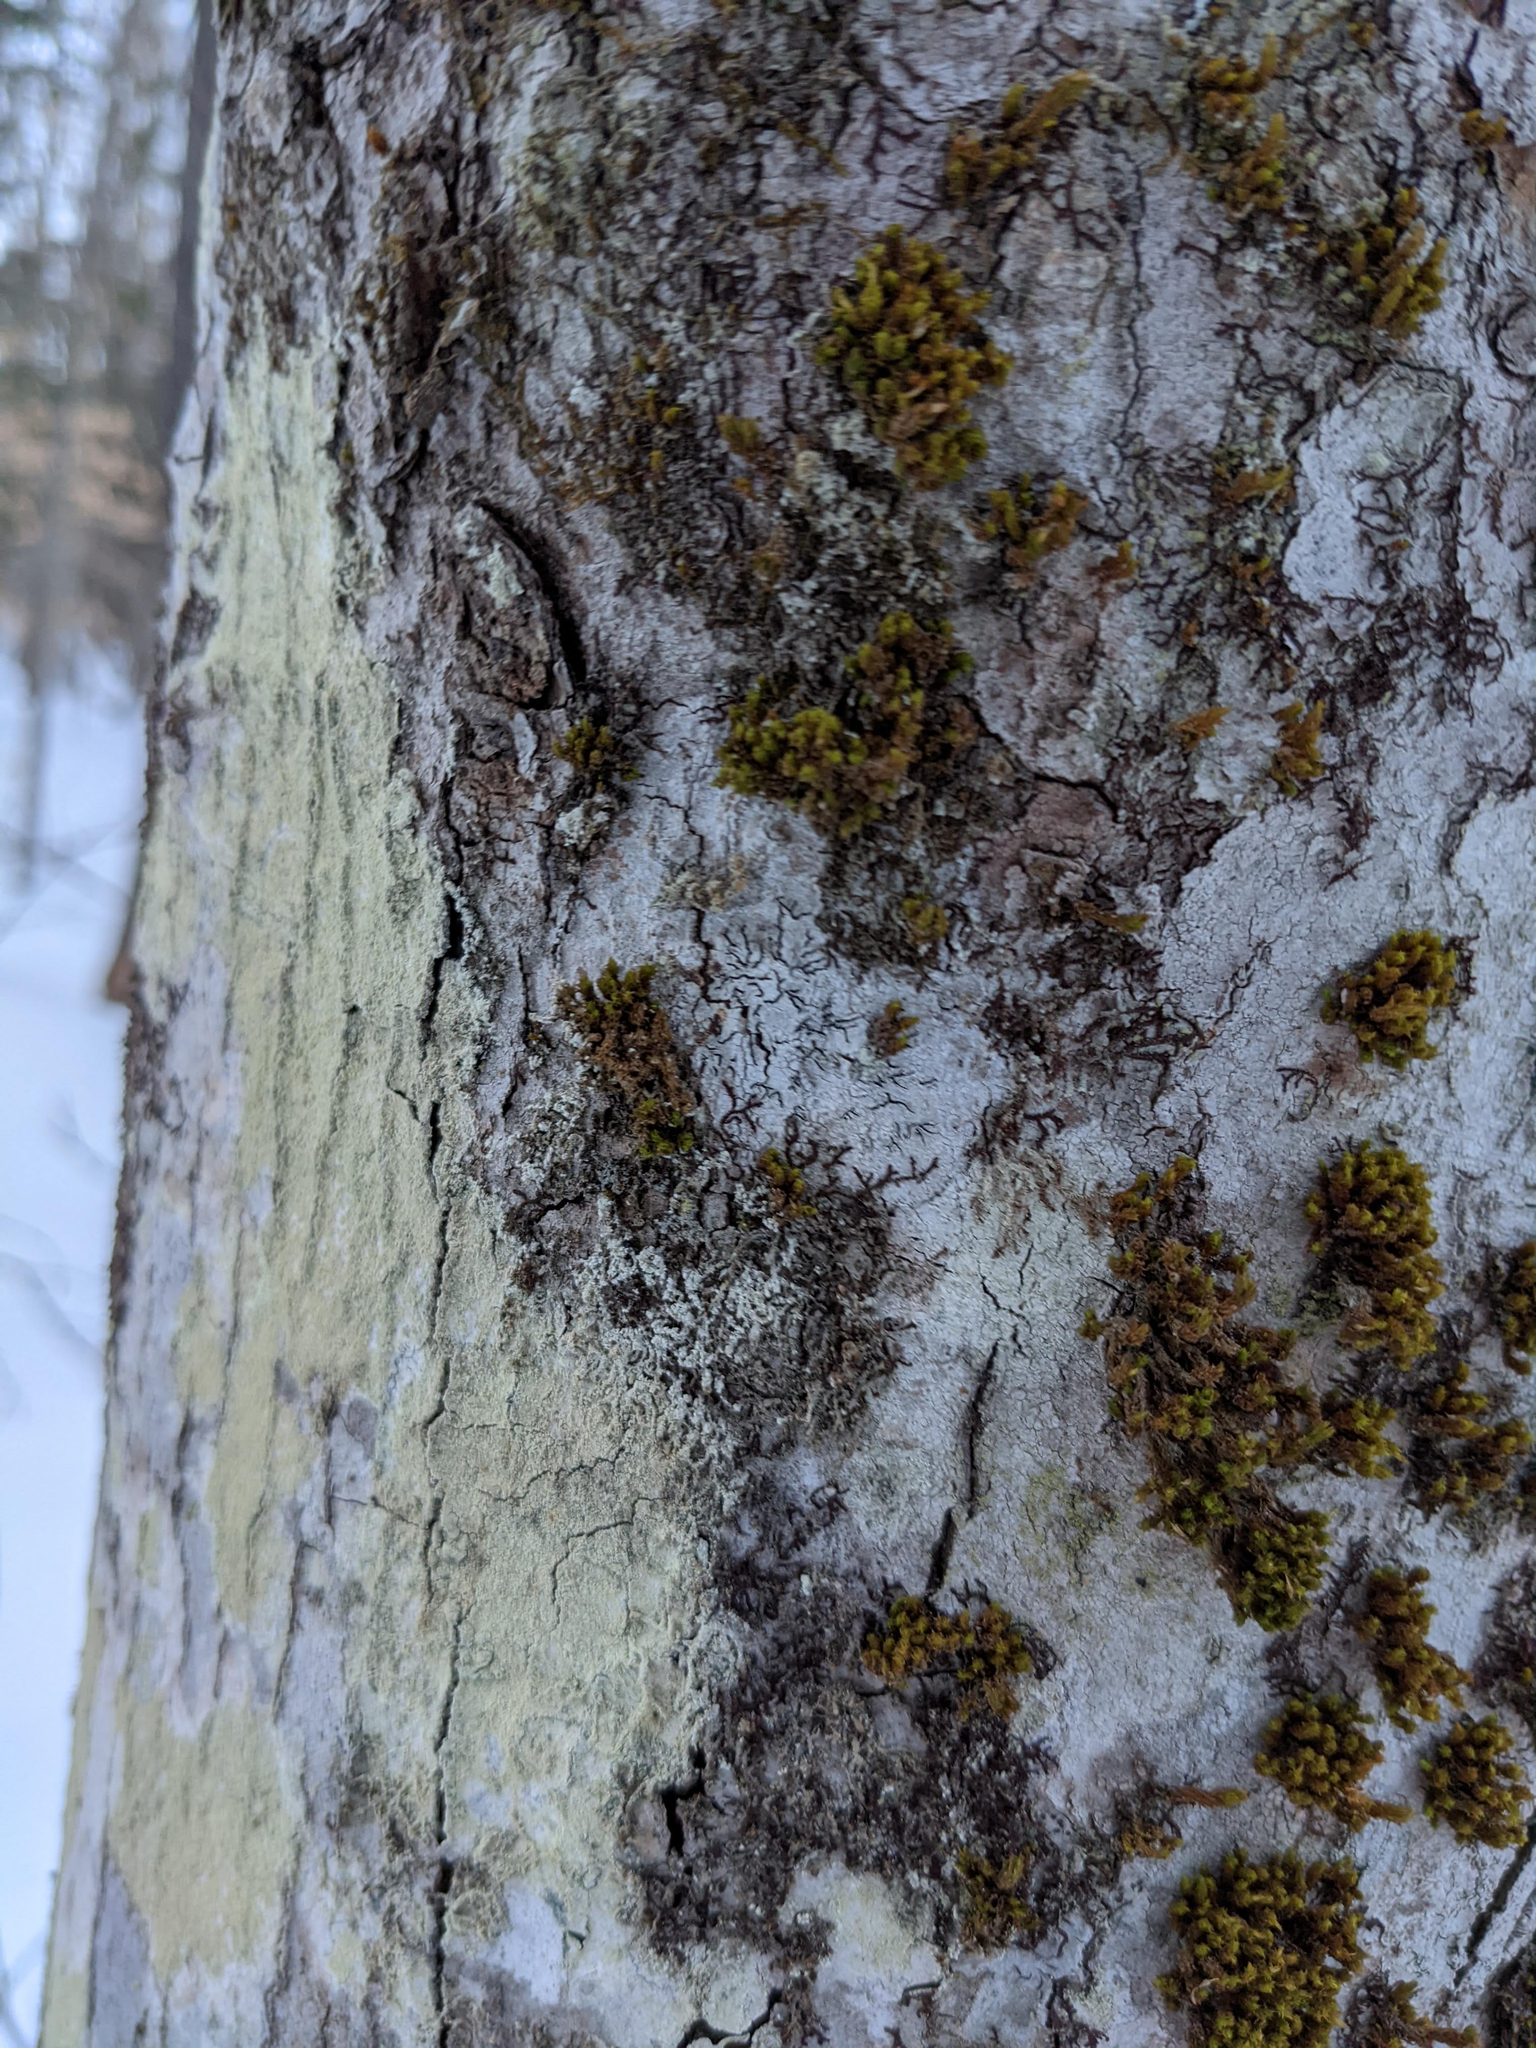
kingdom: Plantae
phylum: Bryophyta
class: Bryopsida
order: Orthotrichales
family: Orthotrichaceae
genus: Ulota
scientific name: Ulota crispa
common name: Crisped pincushion moss
